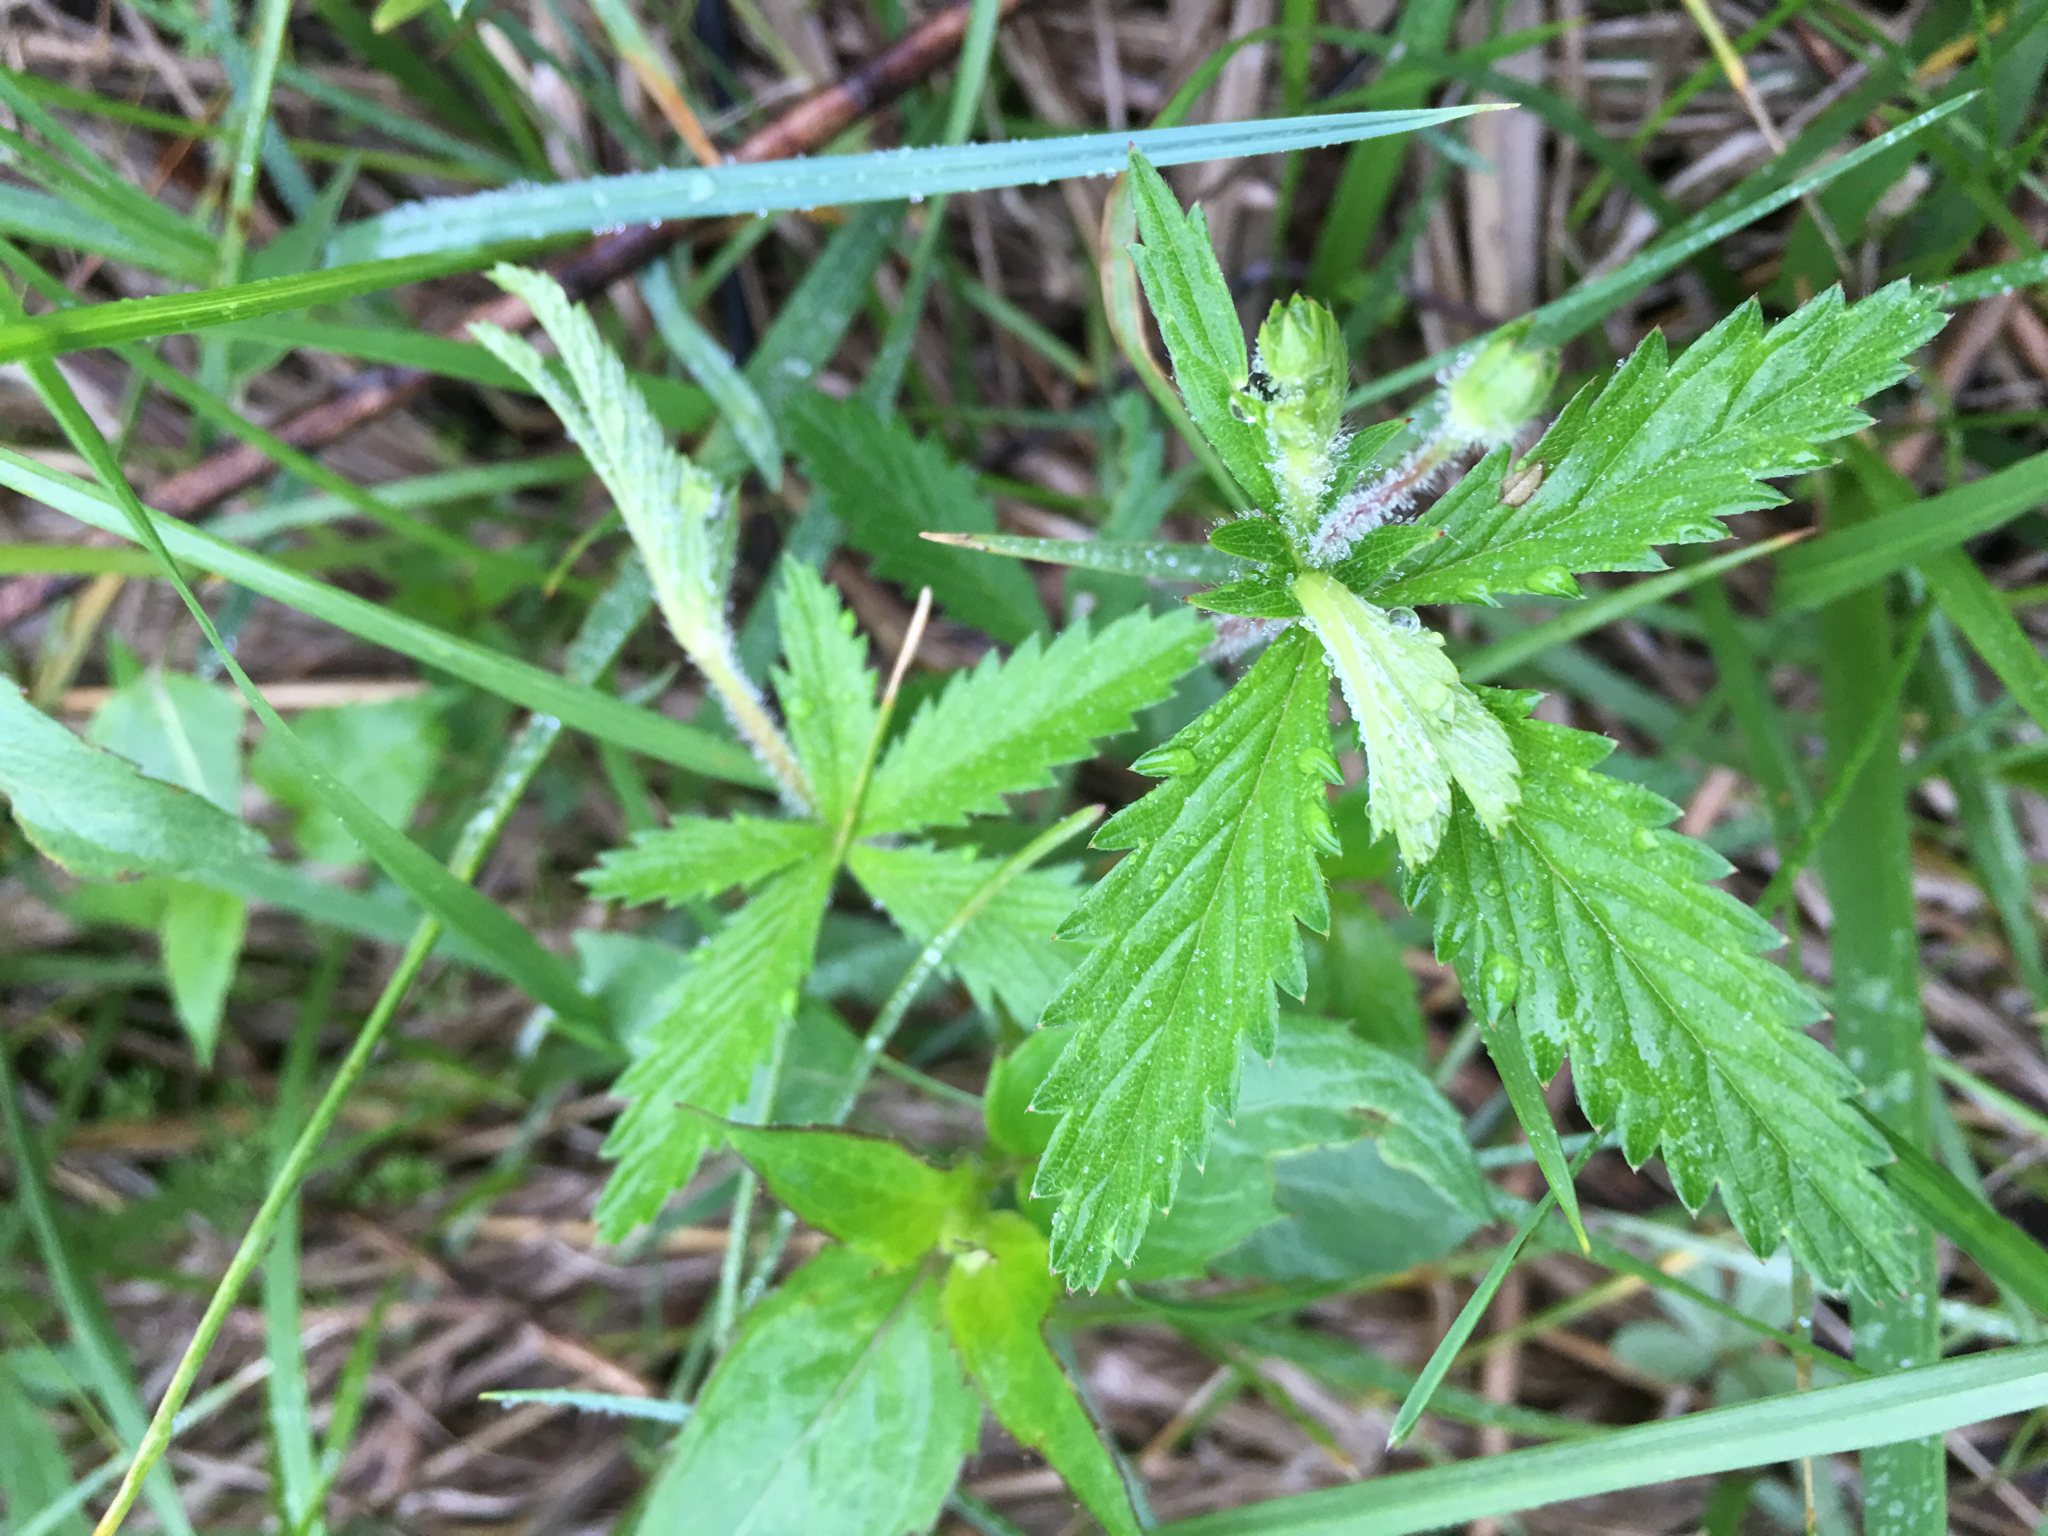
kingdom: Plantae
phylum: Tracheophyta
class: Magnoliopsida
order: Rosales
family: Rosaceae
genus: Drymocallis
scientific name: Drymocallis arguta
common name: Tall cinquefoil
